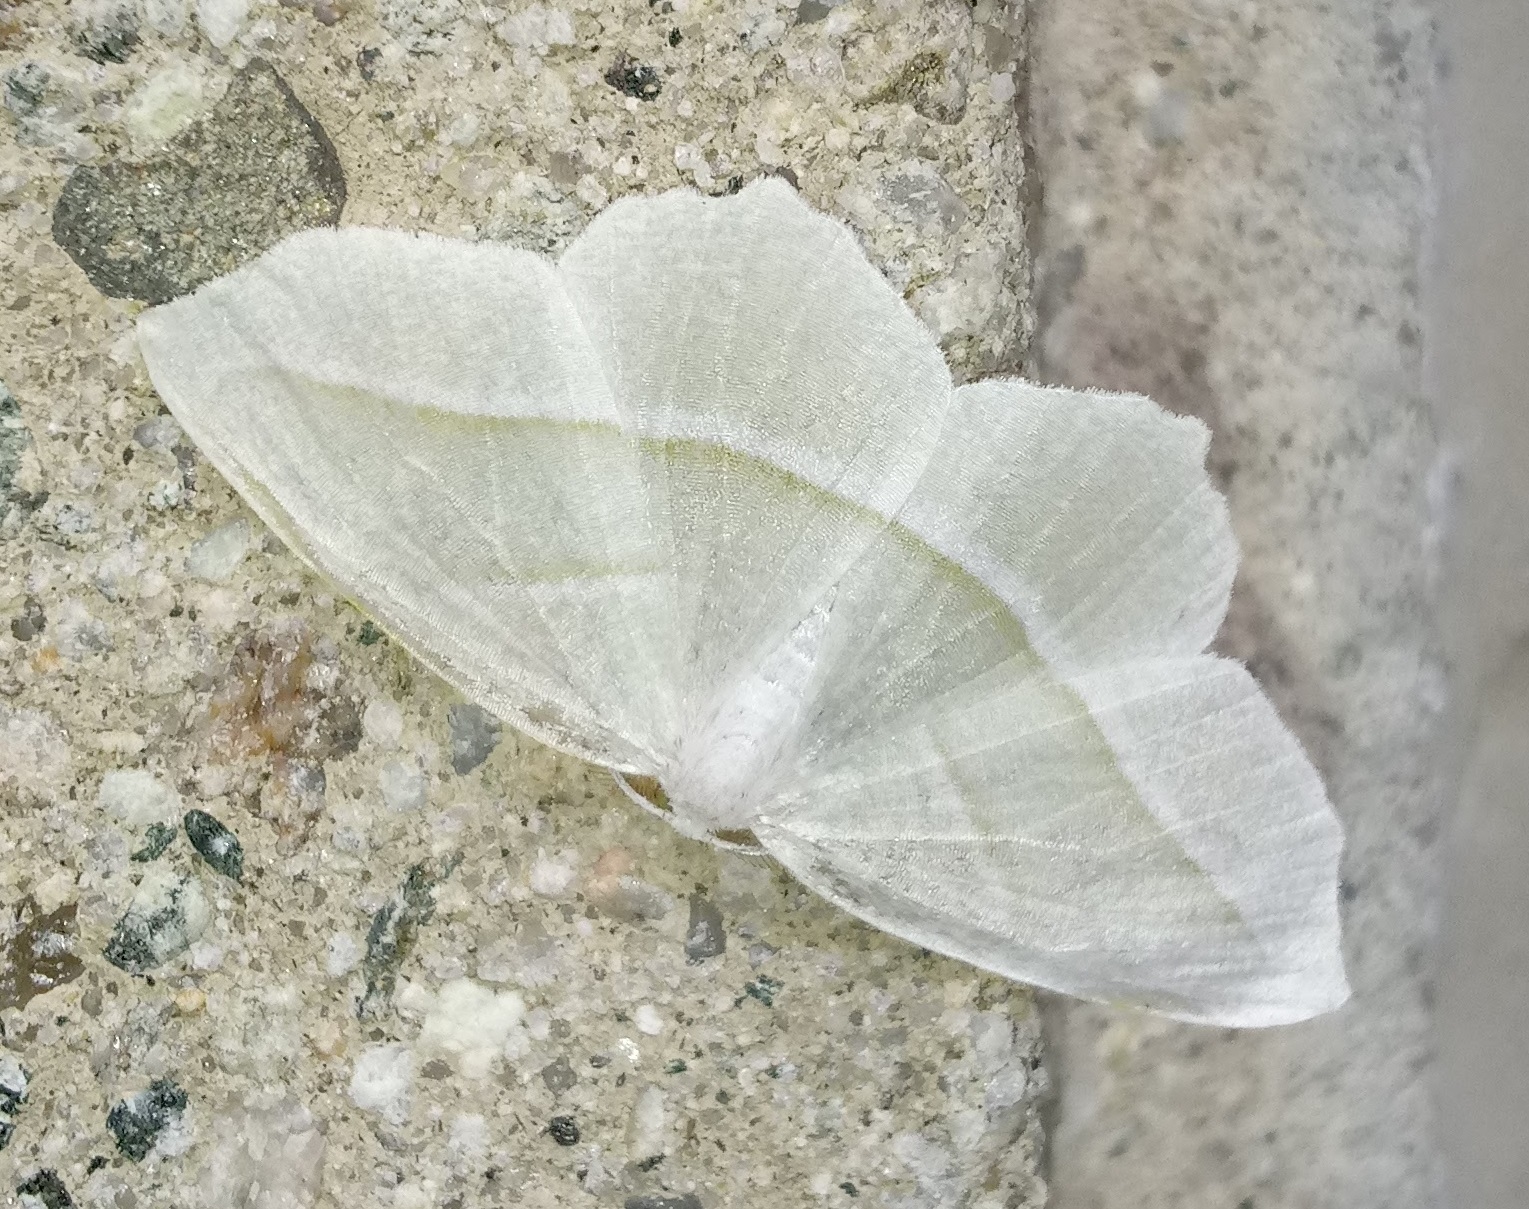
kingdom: Animalia
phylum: Arthropoda
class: Insecta
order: Lepidoptera
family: Geometridae
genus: Campaea
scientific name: Campaea perlata
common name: Fringed looper
